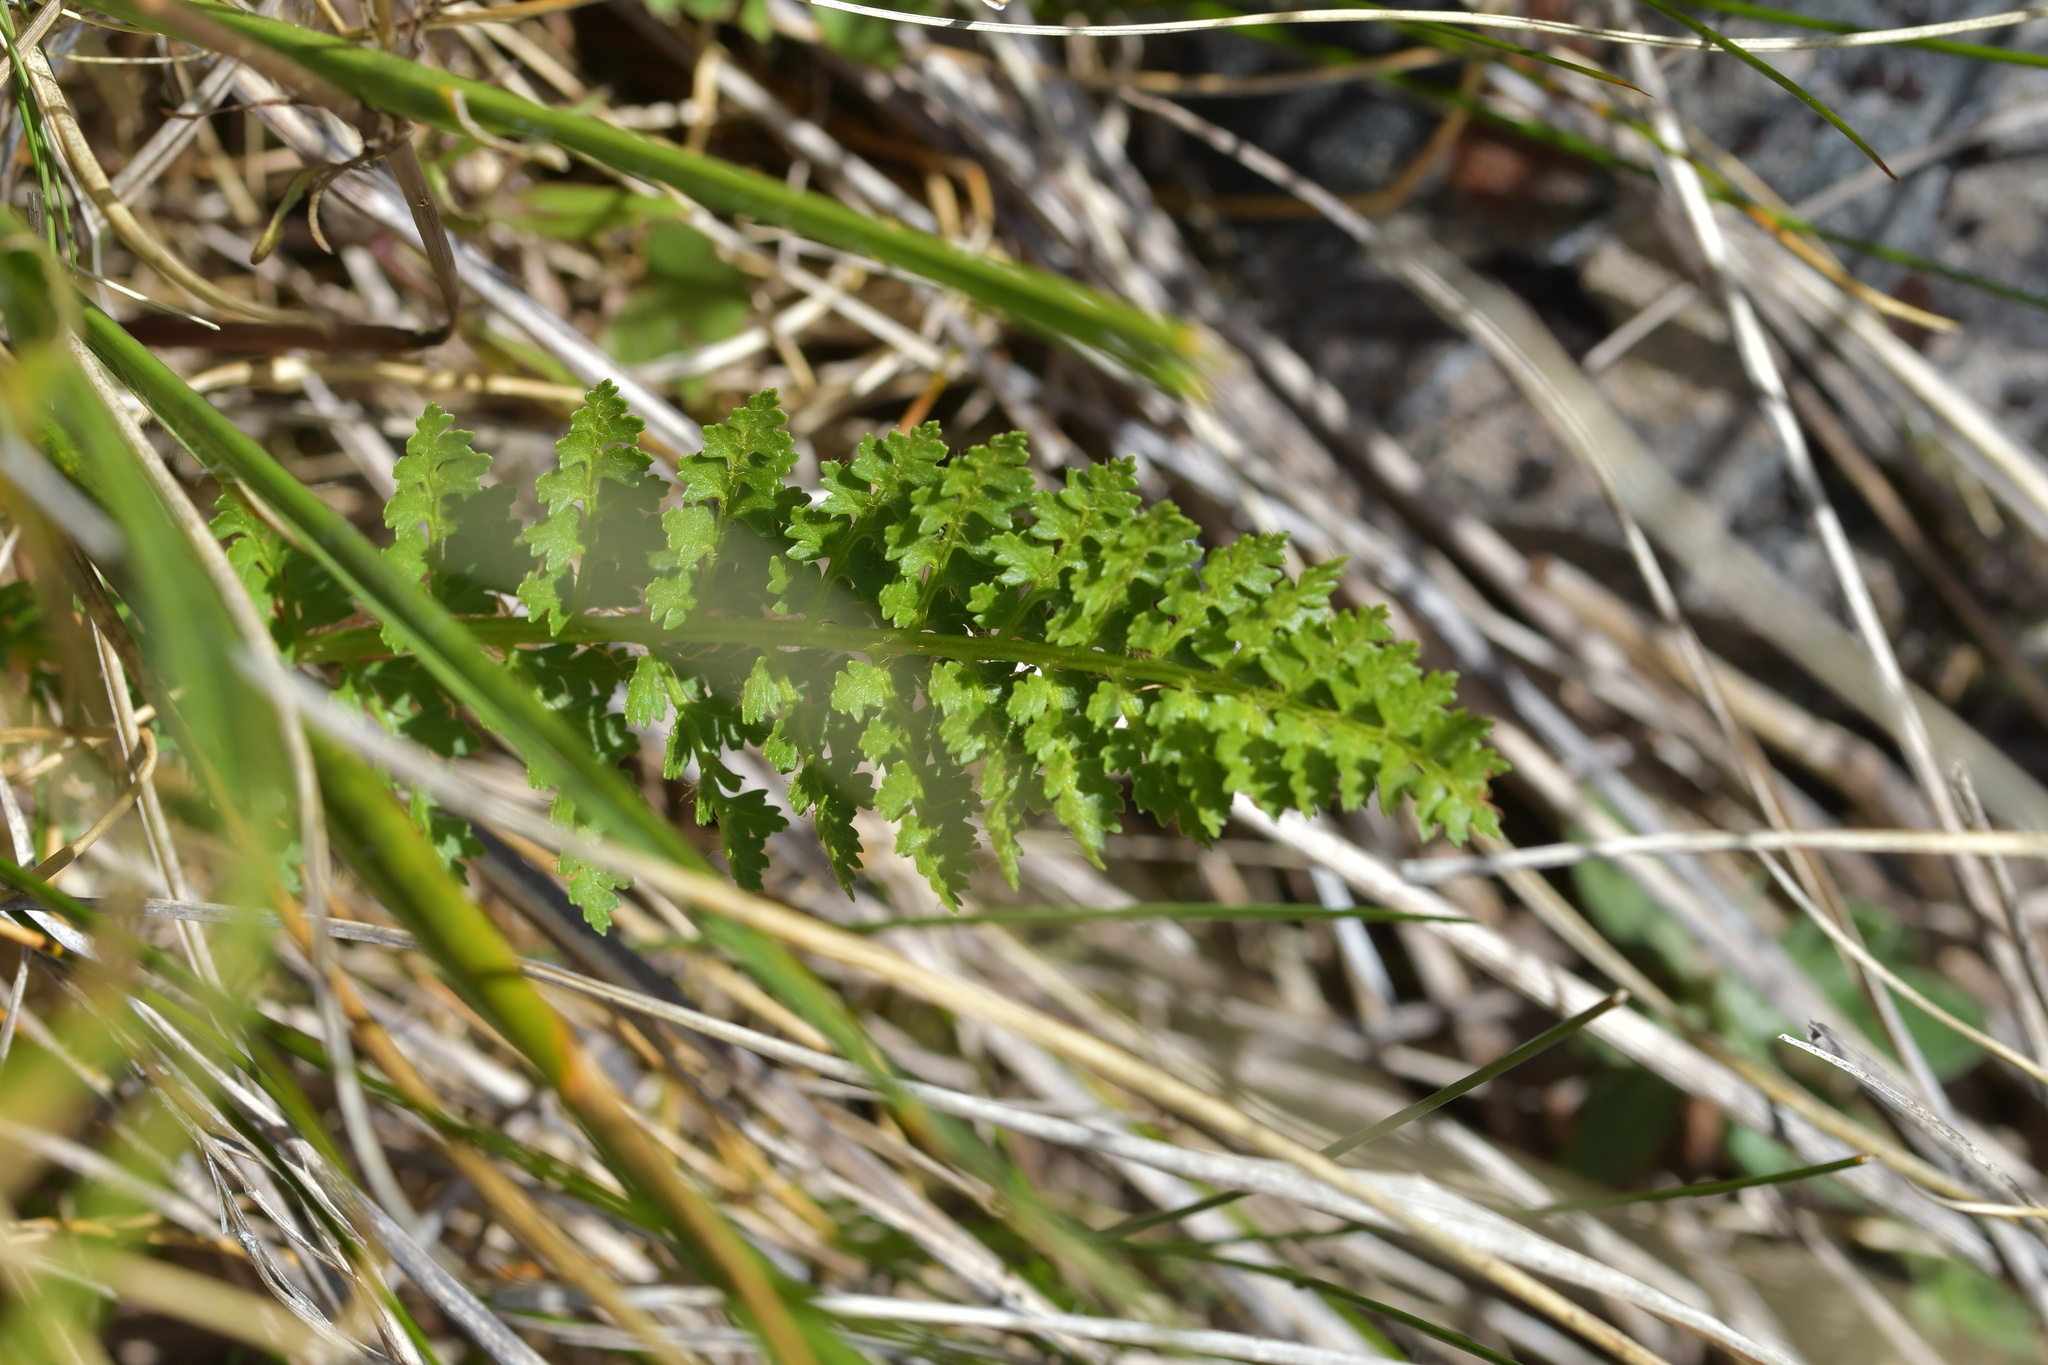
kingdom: Plantae
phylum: Tracheophyta
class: Polypodiopsida
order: Polypodiales
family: Dryopteridaceae
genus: Polystichum
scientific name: Polystichum cystostegia
